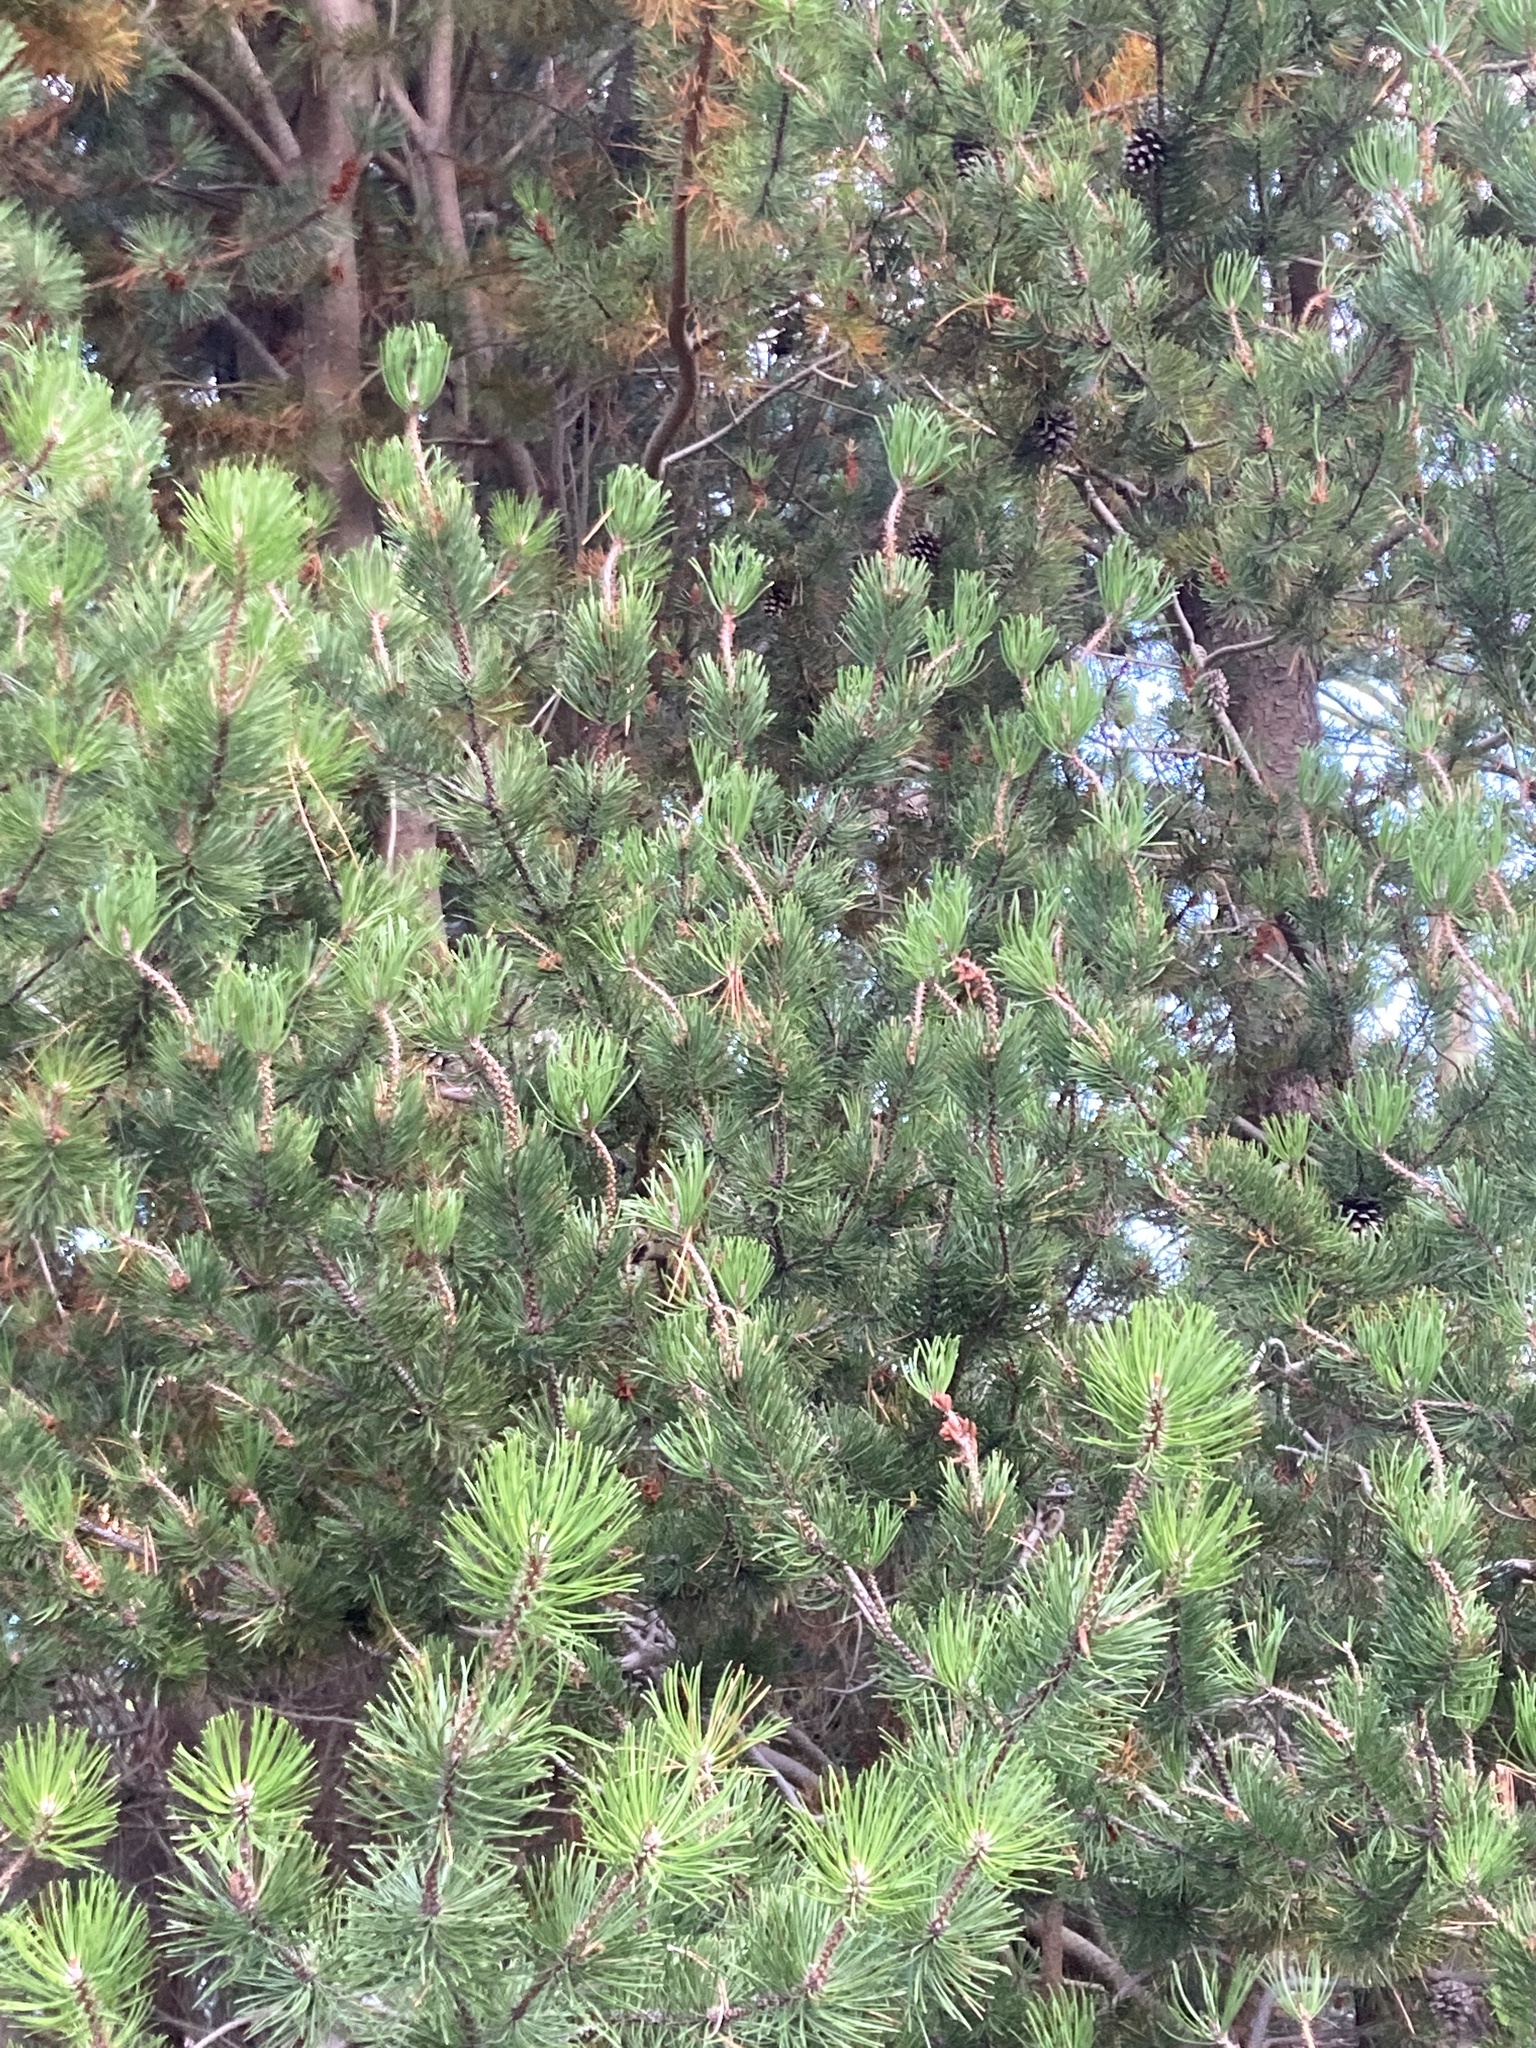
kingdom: Plantae
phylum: Tracheophyta
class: Pinopsida
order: Pinales
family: Pinaceae
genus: Pinus
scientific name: Pinus contorta
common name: Lodgepole pine
